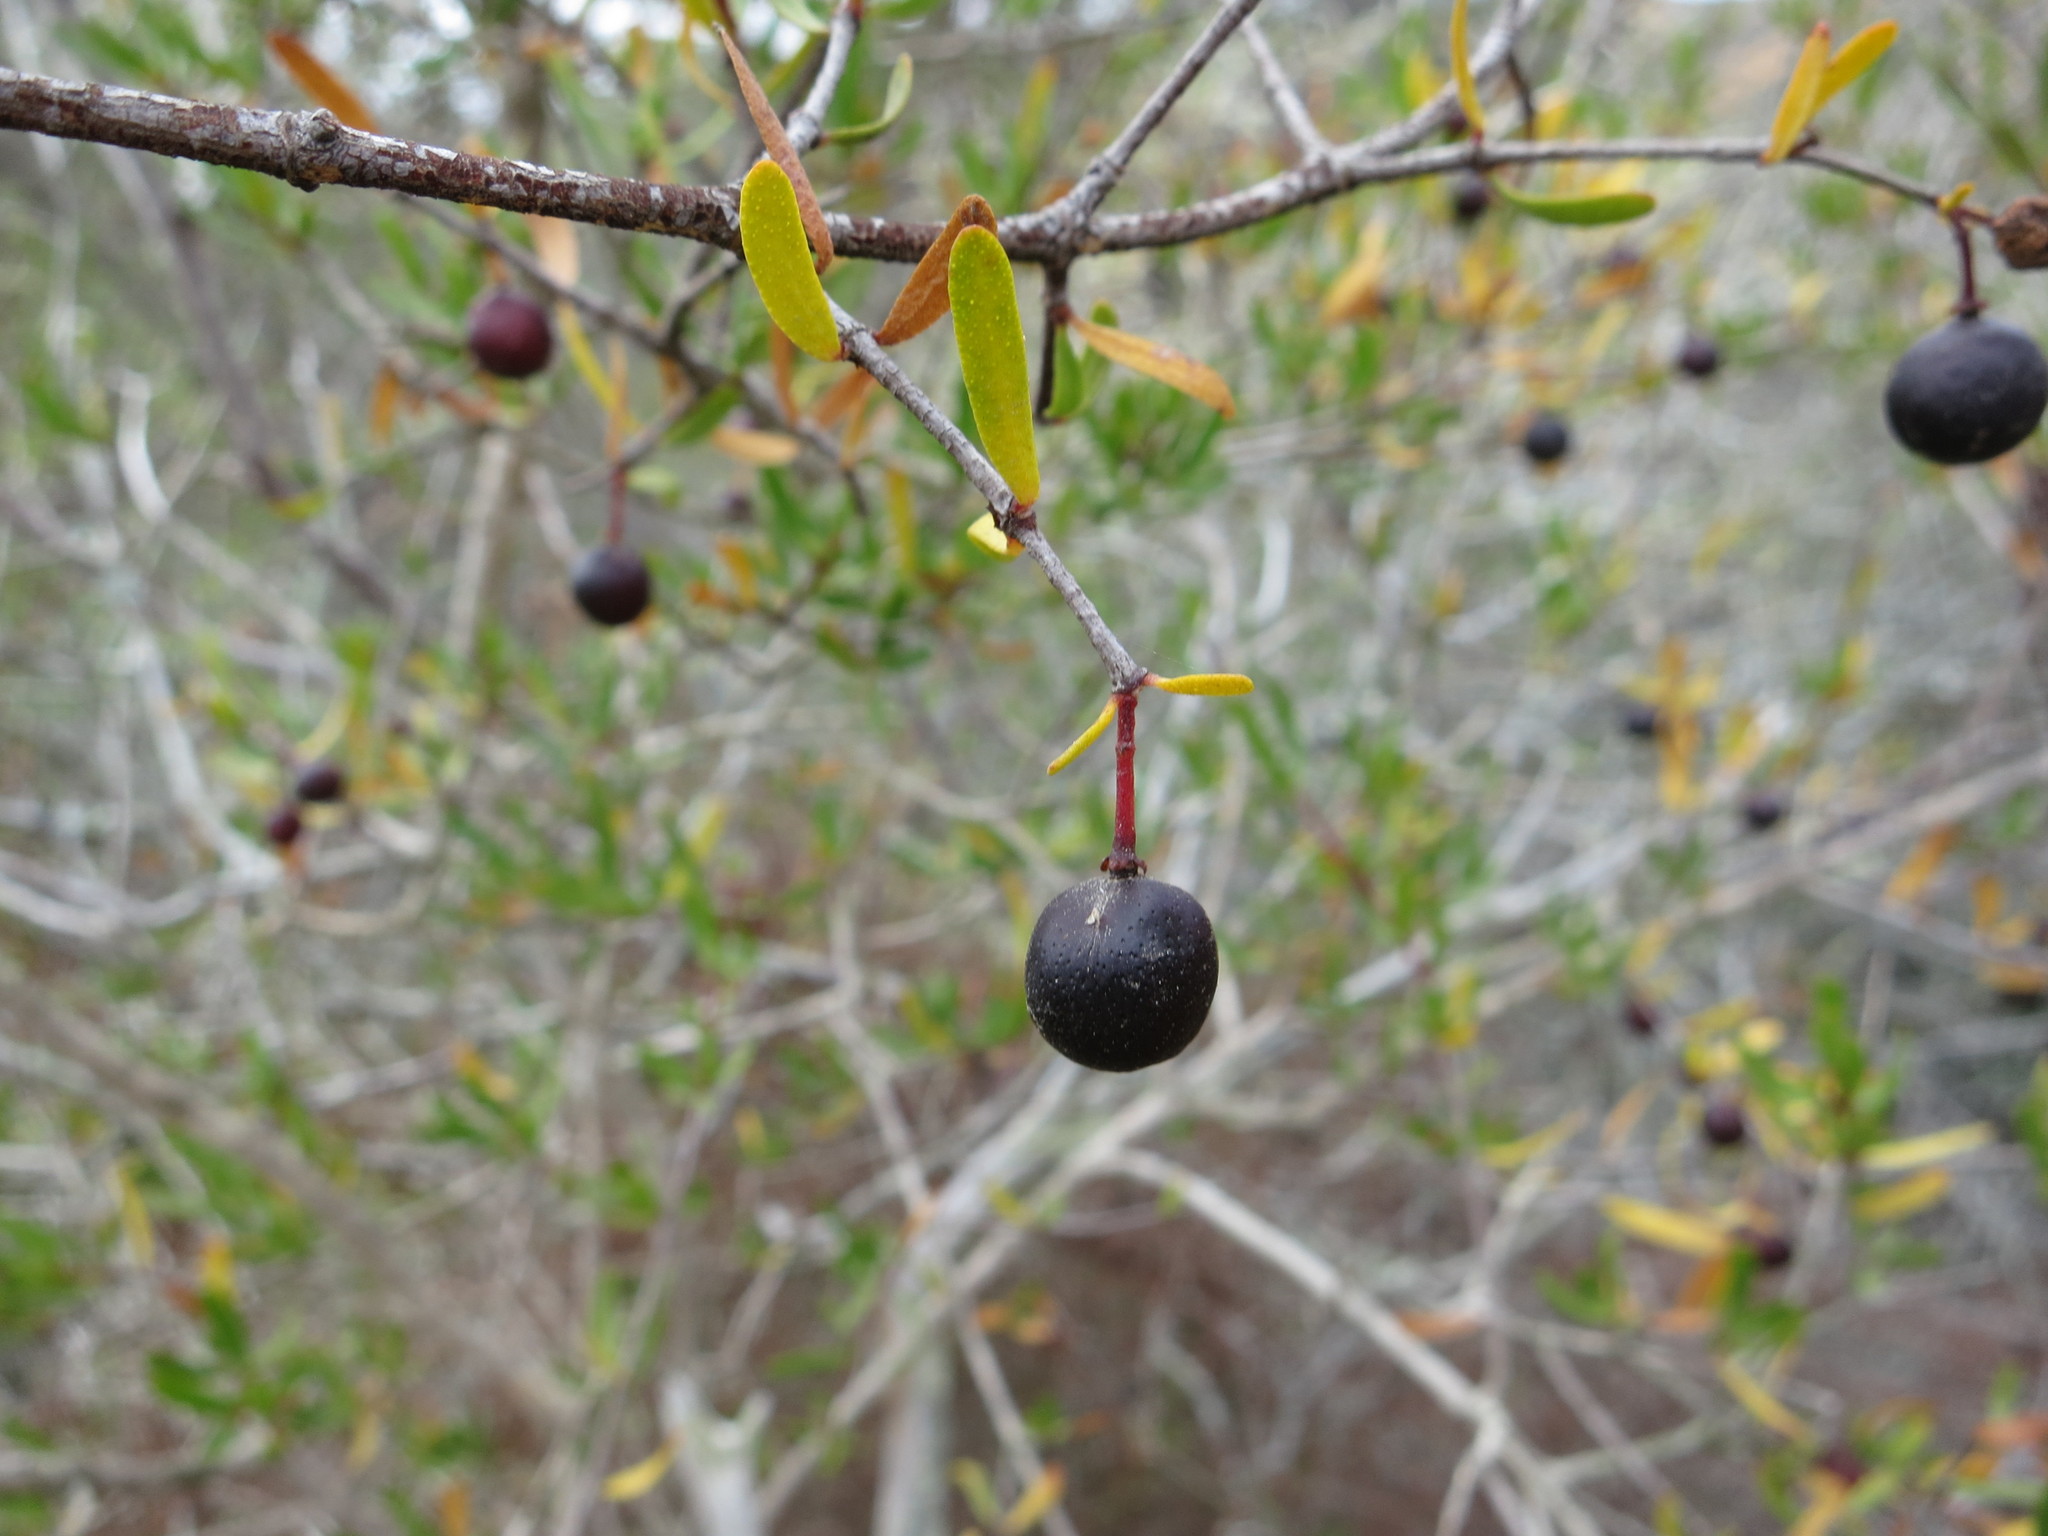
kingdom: Plantae
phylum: Tracheophyta
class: Magnoliopsida
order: Sapindales
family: Rutaceae
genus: Cneoridium
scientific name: Cneoridium dumosum
